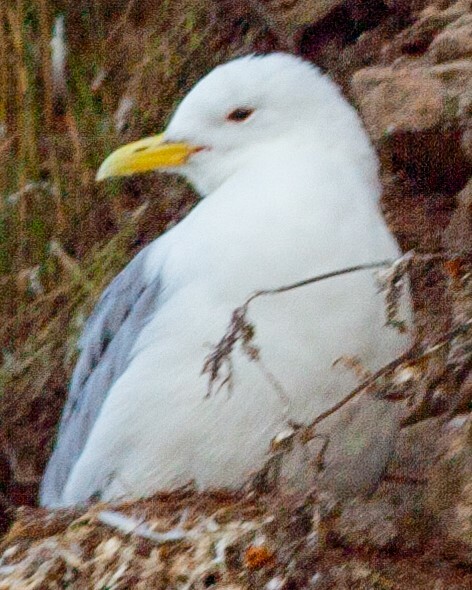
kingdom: Animalia
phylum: Chordata
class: Aves
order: Charadriiformes
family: Laridae
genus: Rissa
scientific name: Rissa tridactyla
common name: Black-legged kittiwake
